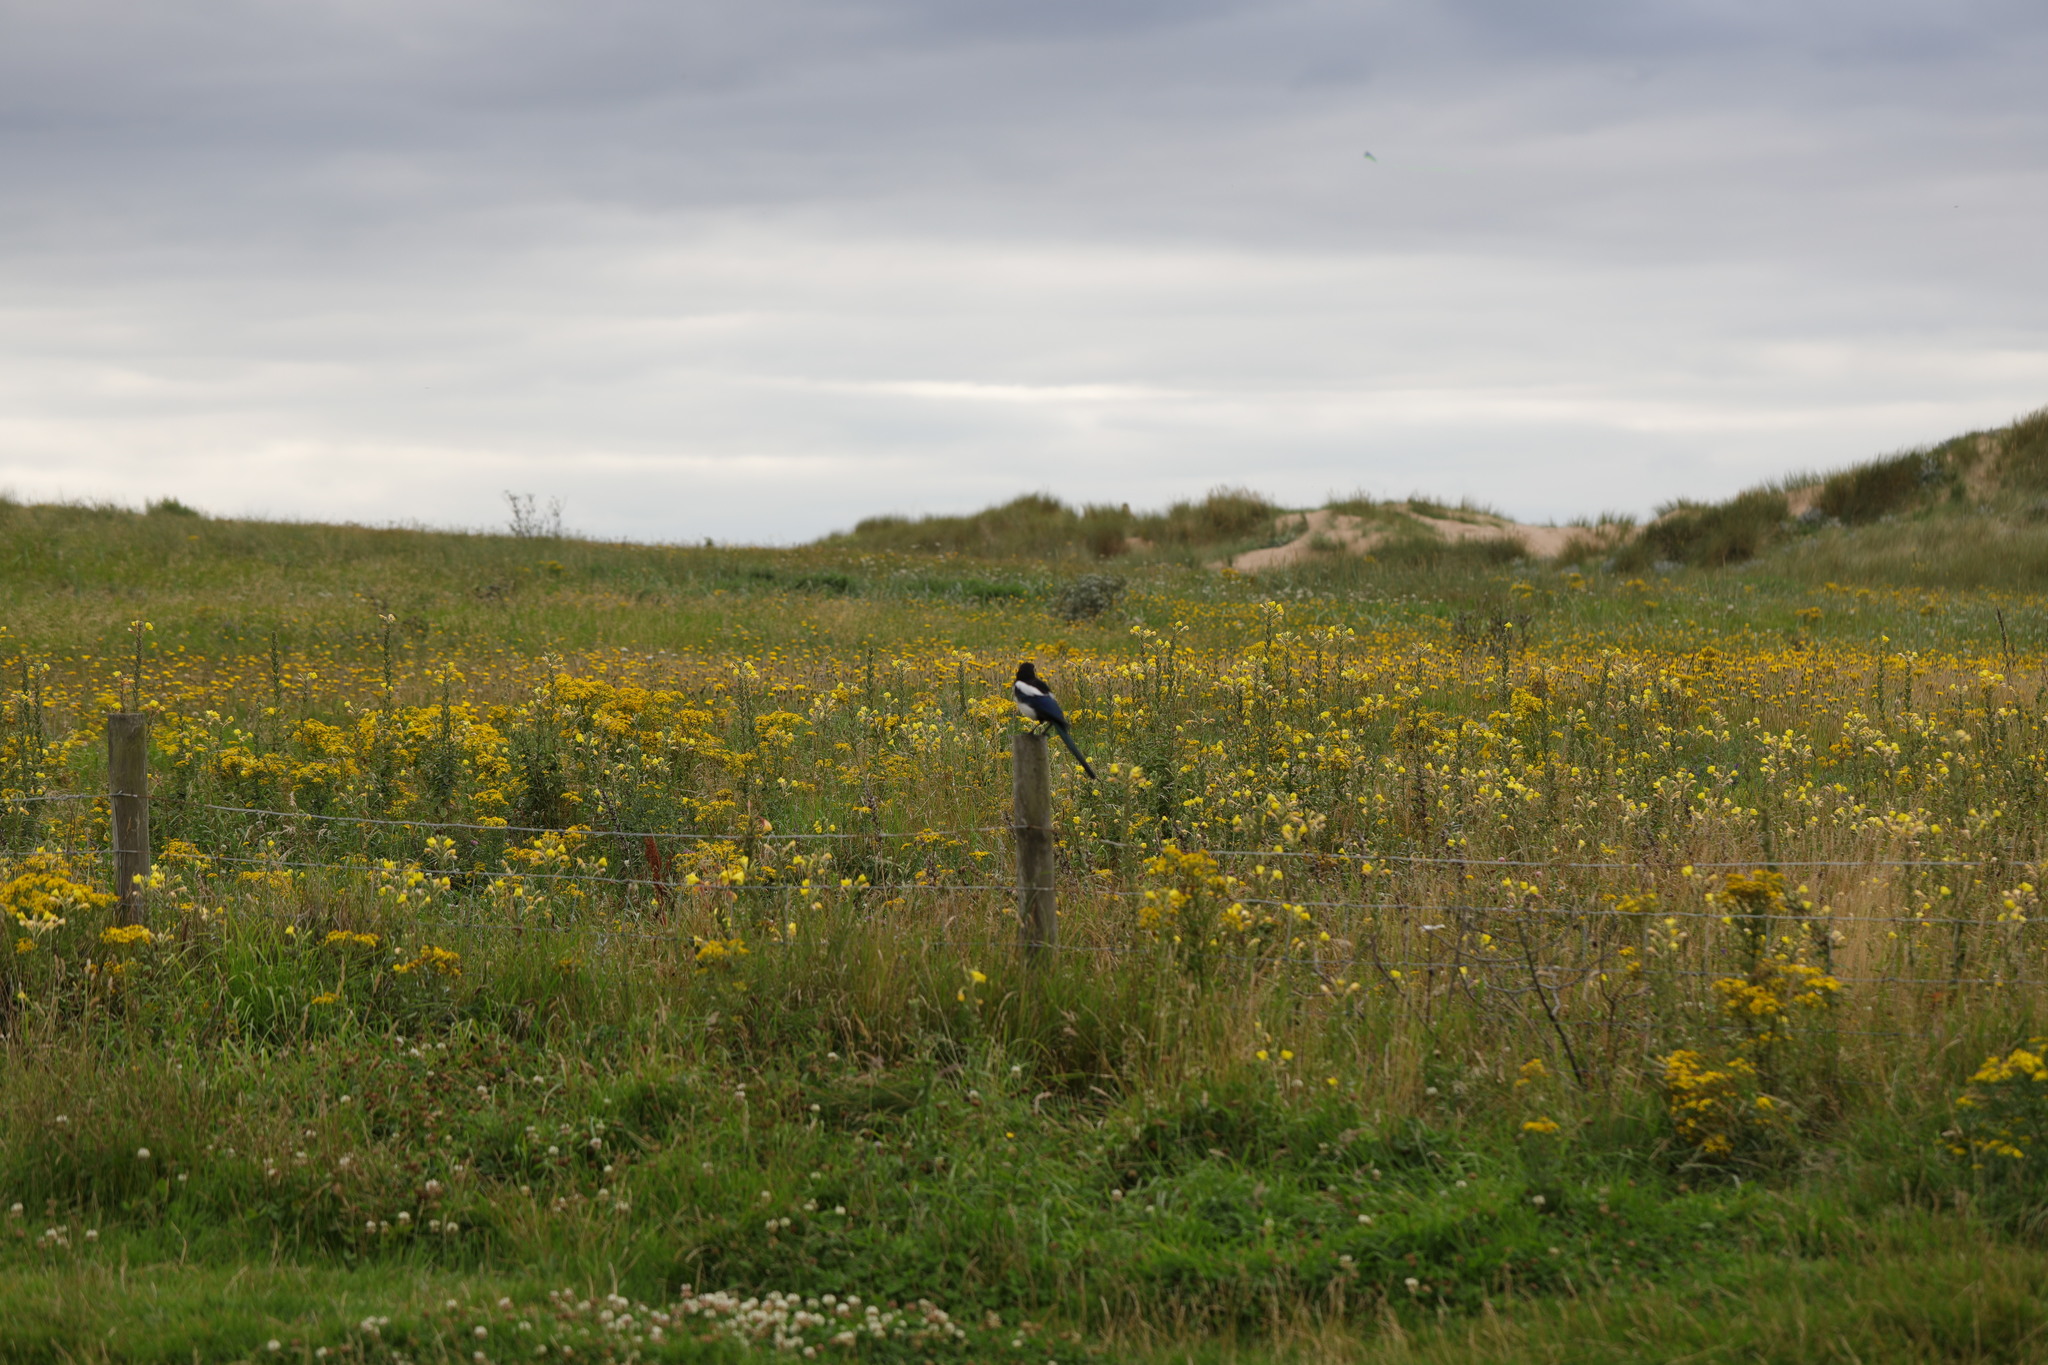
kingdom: Animalia
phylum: Chordata
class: Aves
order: Passeriformes
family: Corvidae
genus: Pica
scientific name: Pica pica
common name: Eurasian magpie
